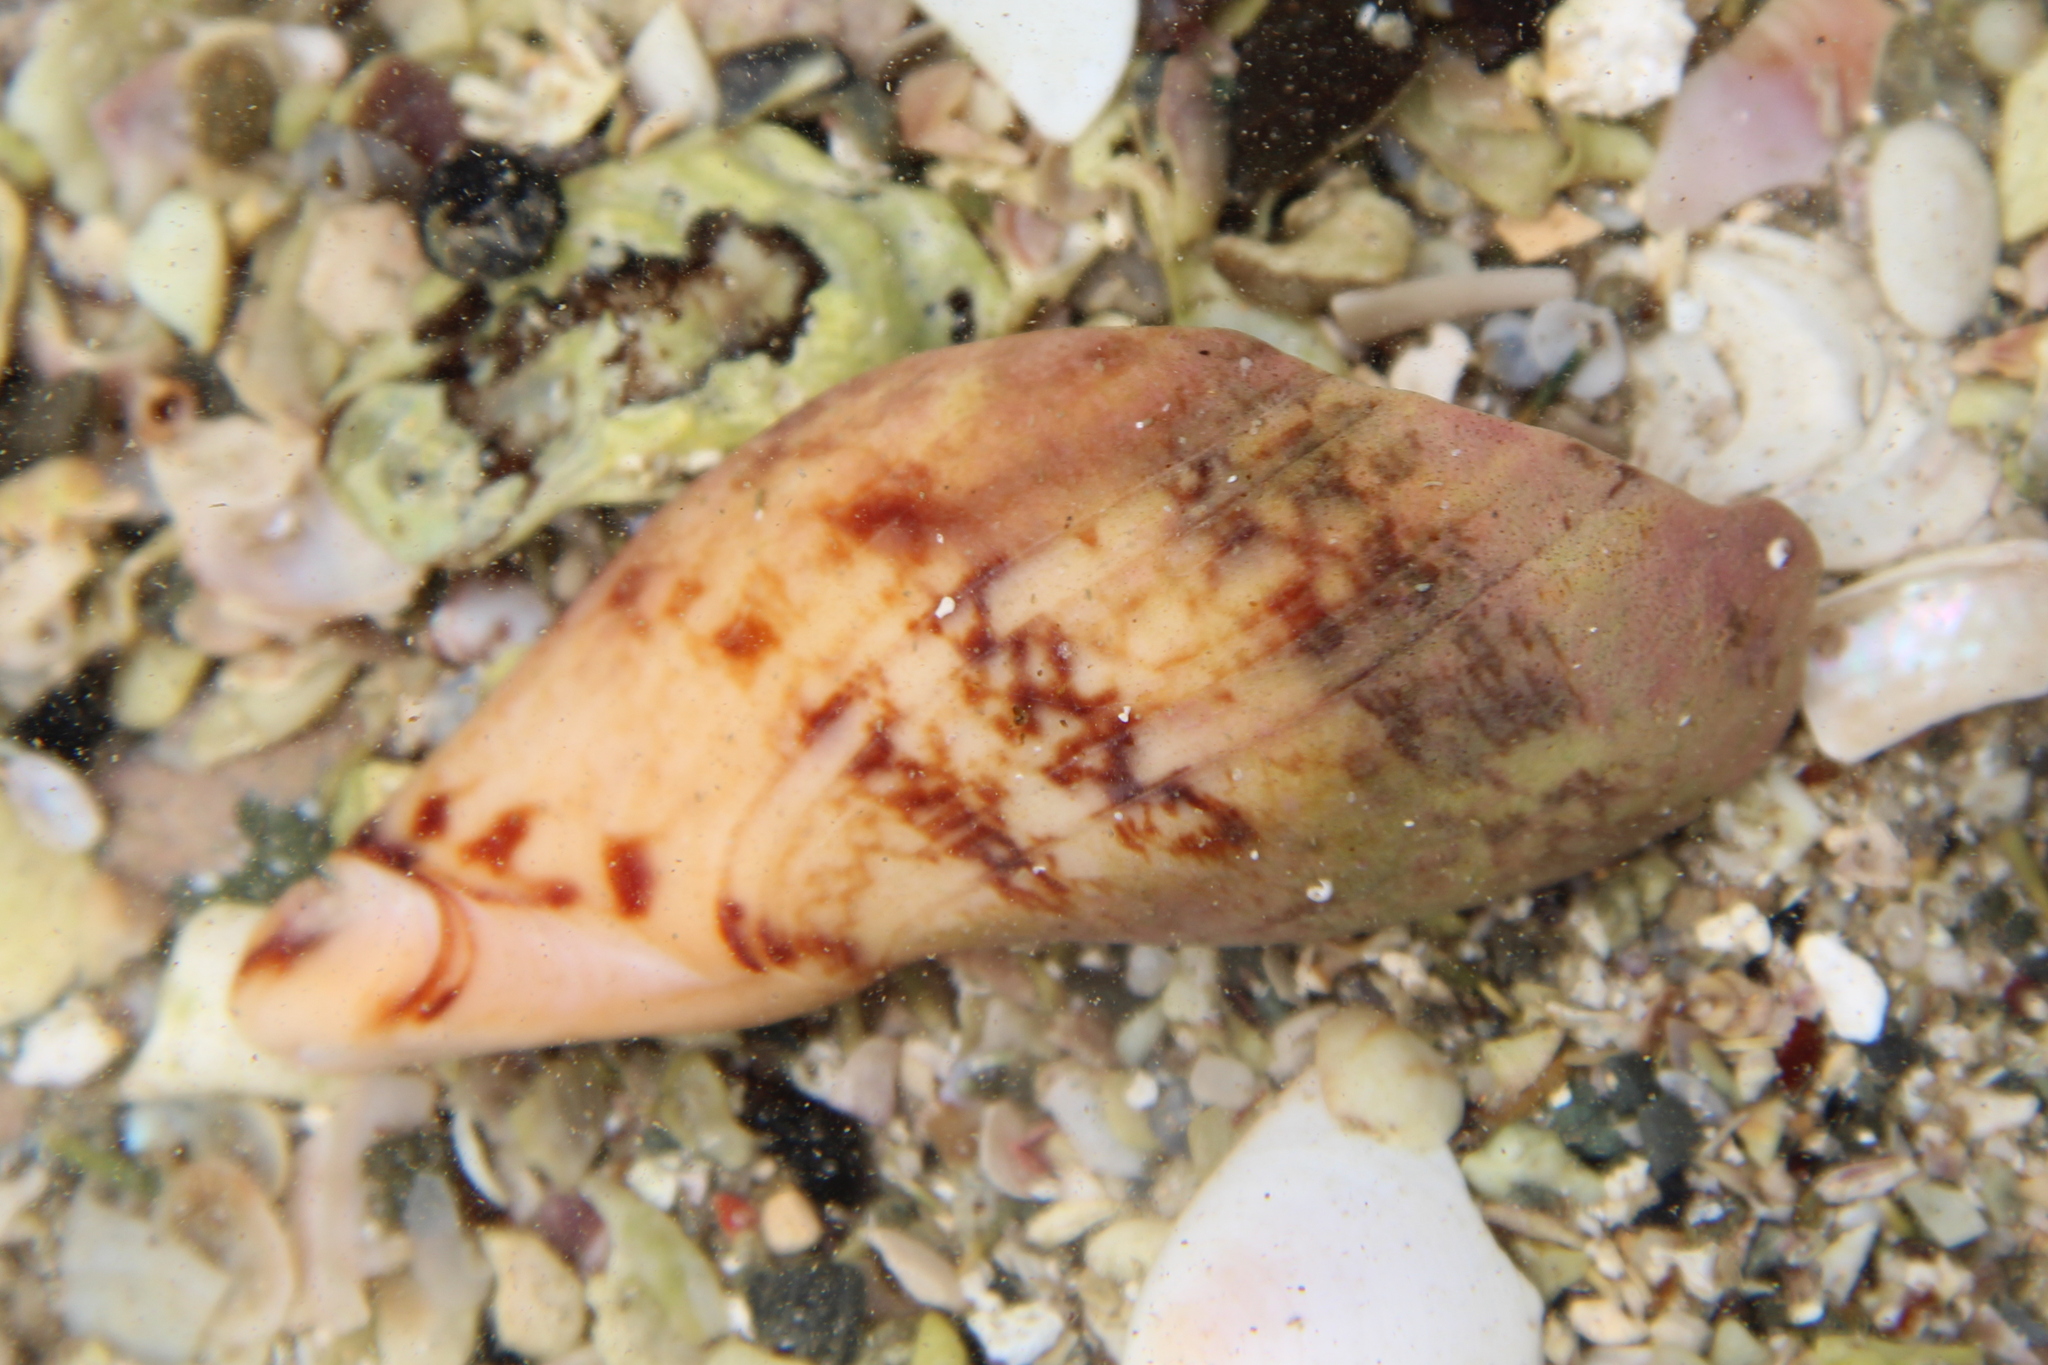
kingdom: Animalia
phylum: Mollusca
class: Gastropoda
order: Neogastropoda
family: Volutidae
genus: Alcithoe
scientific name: Alcithoe arabica
